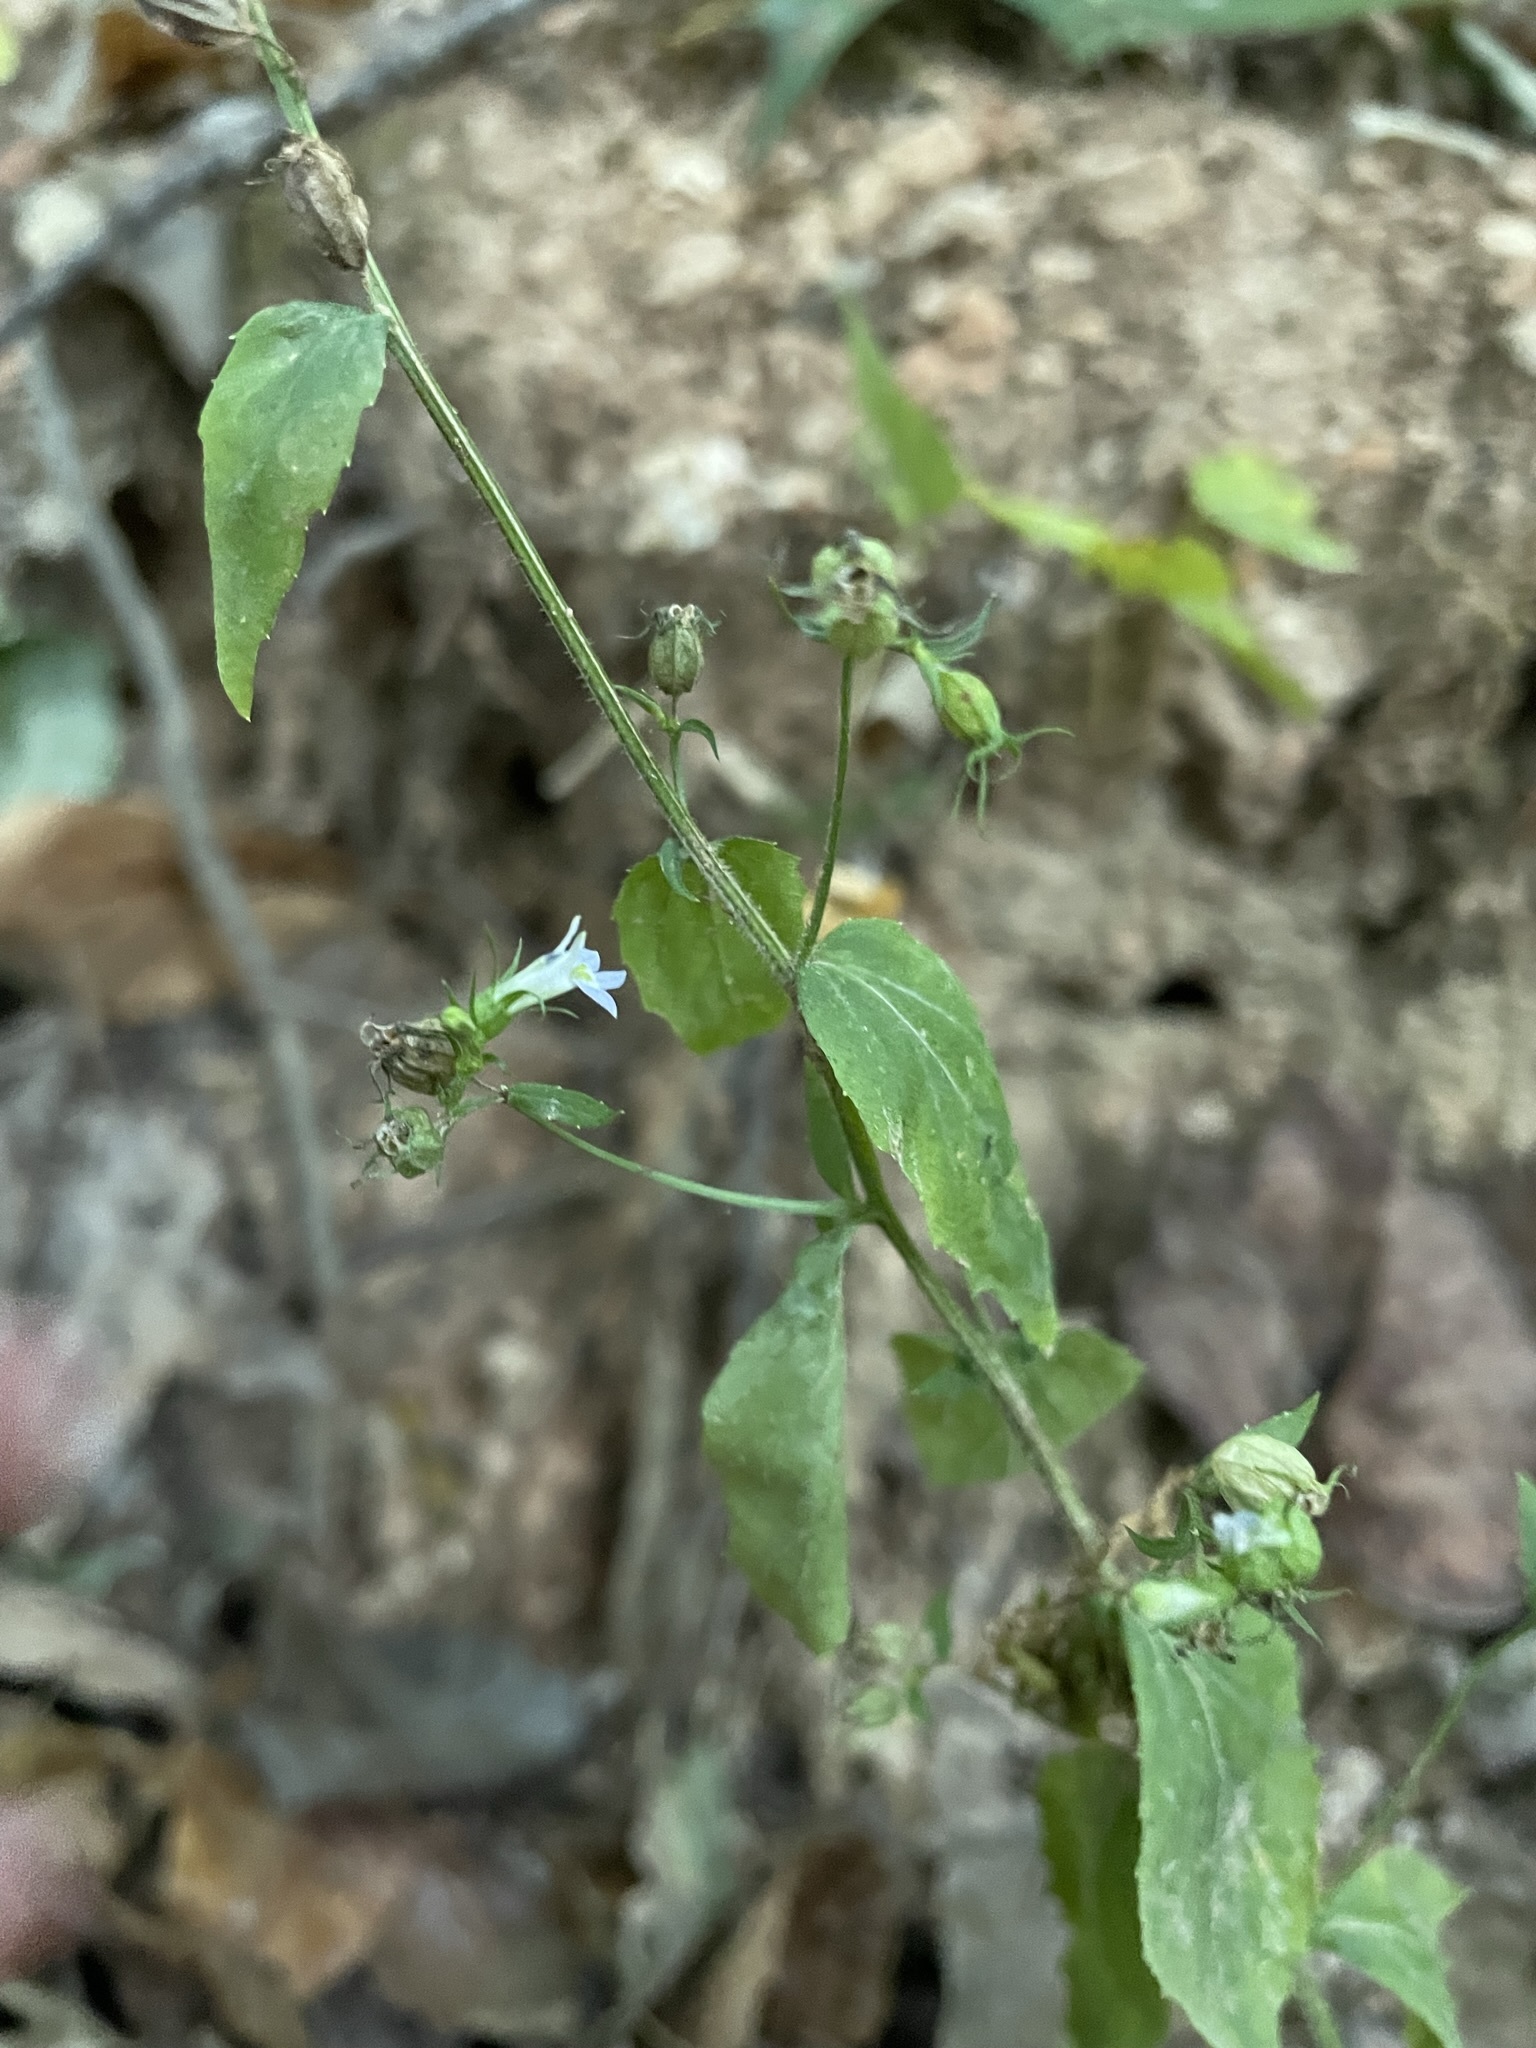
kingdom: Plantae
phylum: Tracheophyta
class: Magnoliopsida
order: Asterales
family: Campanulaceae
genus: Lobelia
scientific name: Lobelia inflata
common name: Indian tobacco
